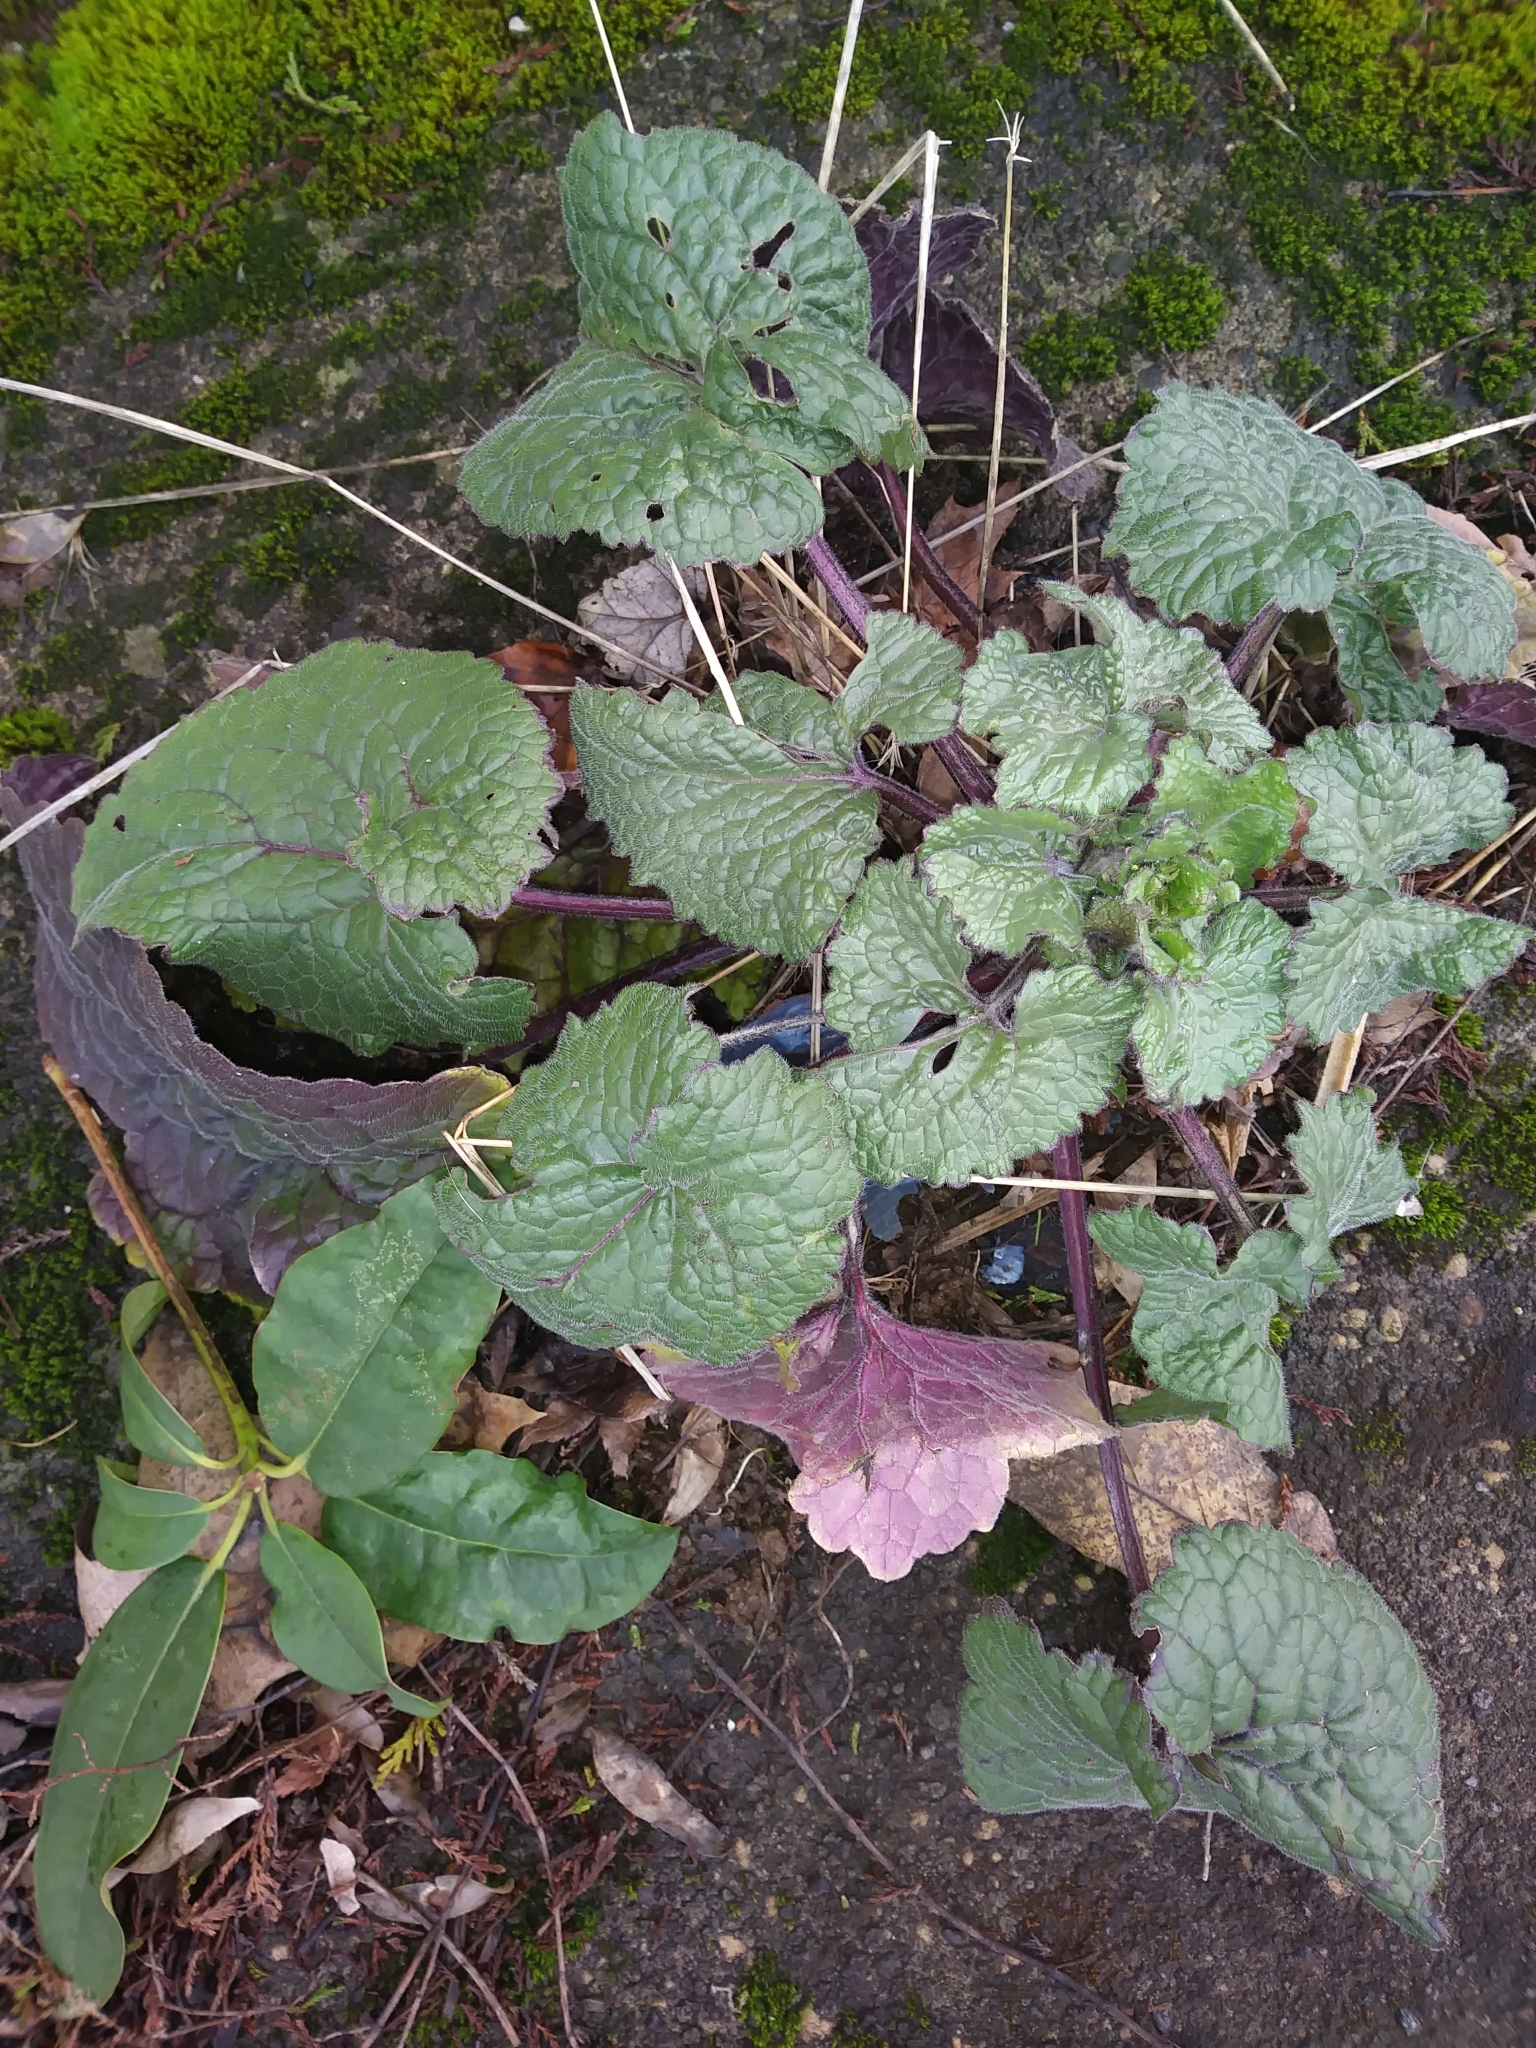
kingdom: Plantae
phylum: Tracheophyta
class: Magnoliopsida
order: Brassicales
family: Brassicaceae
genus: Lunaria
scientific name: Lunaria annua
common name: Honesty
